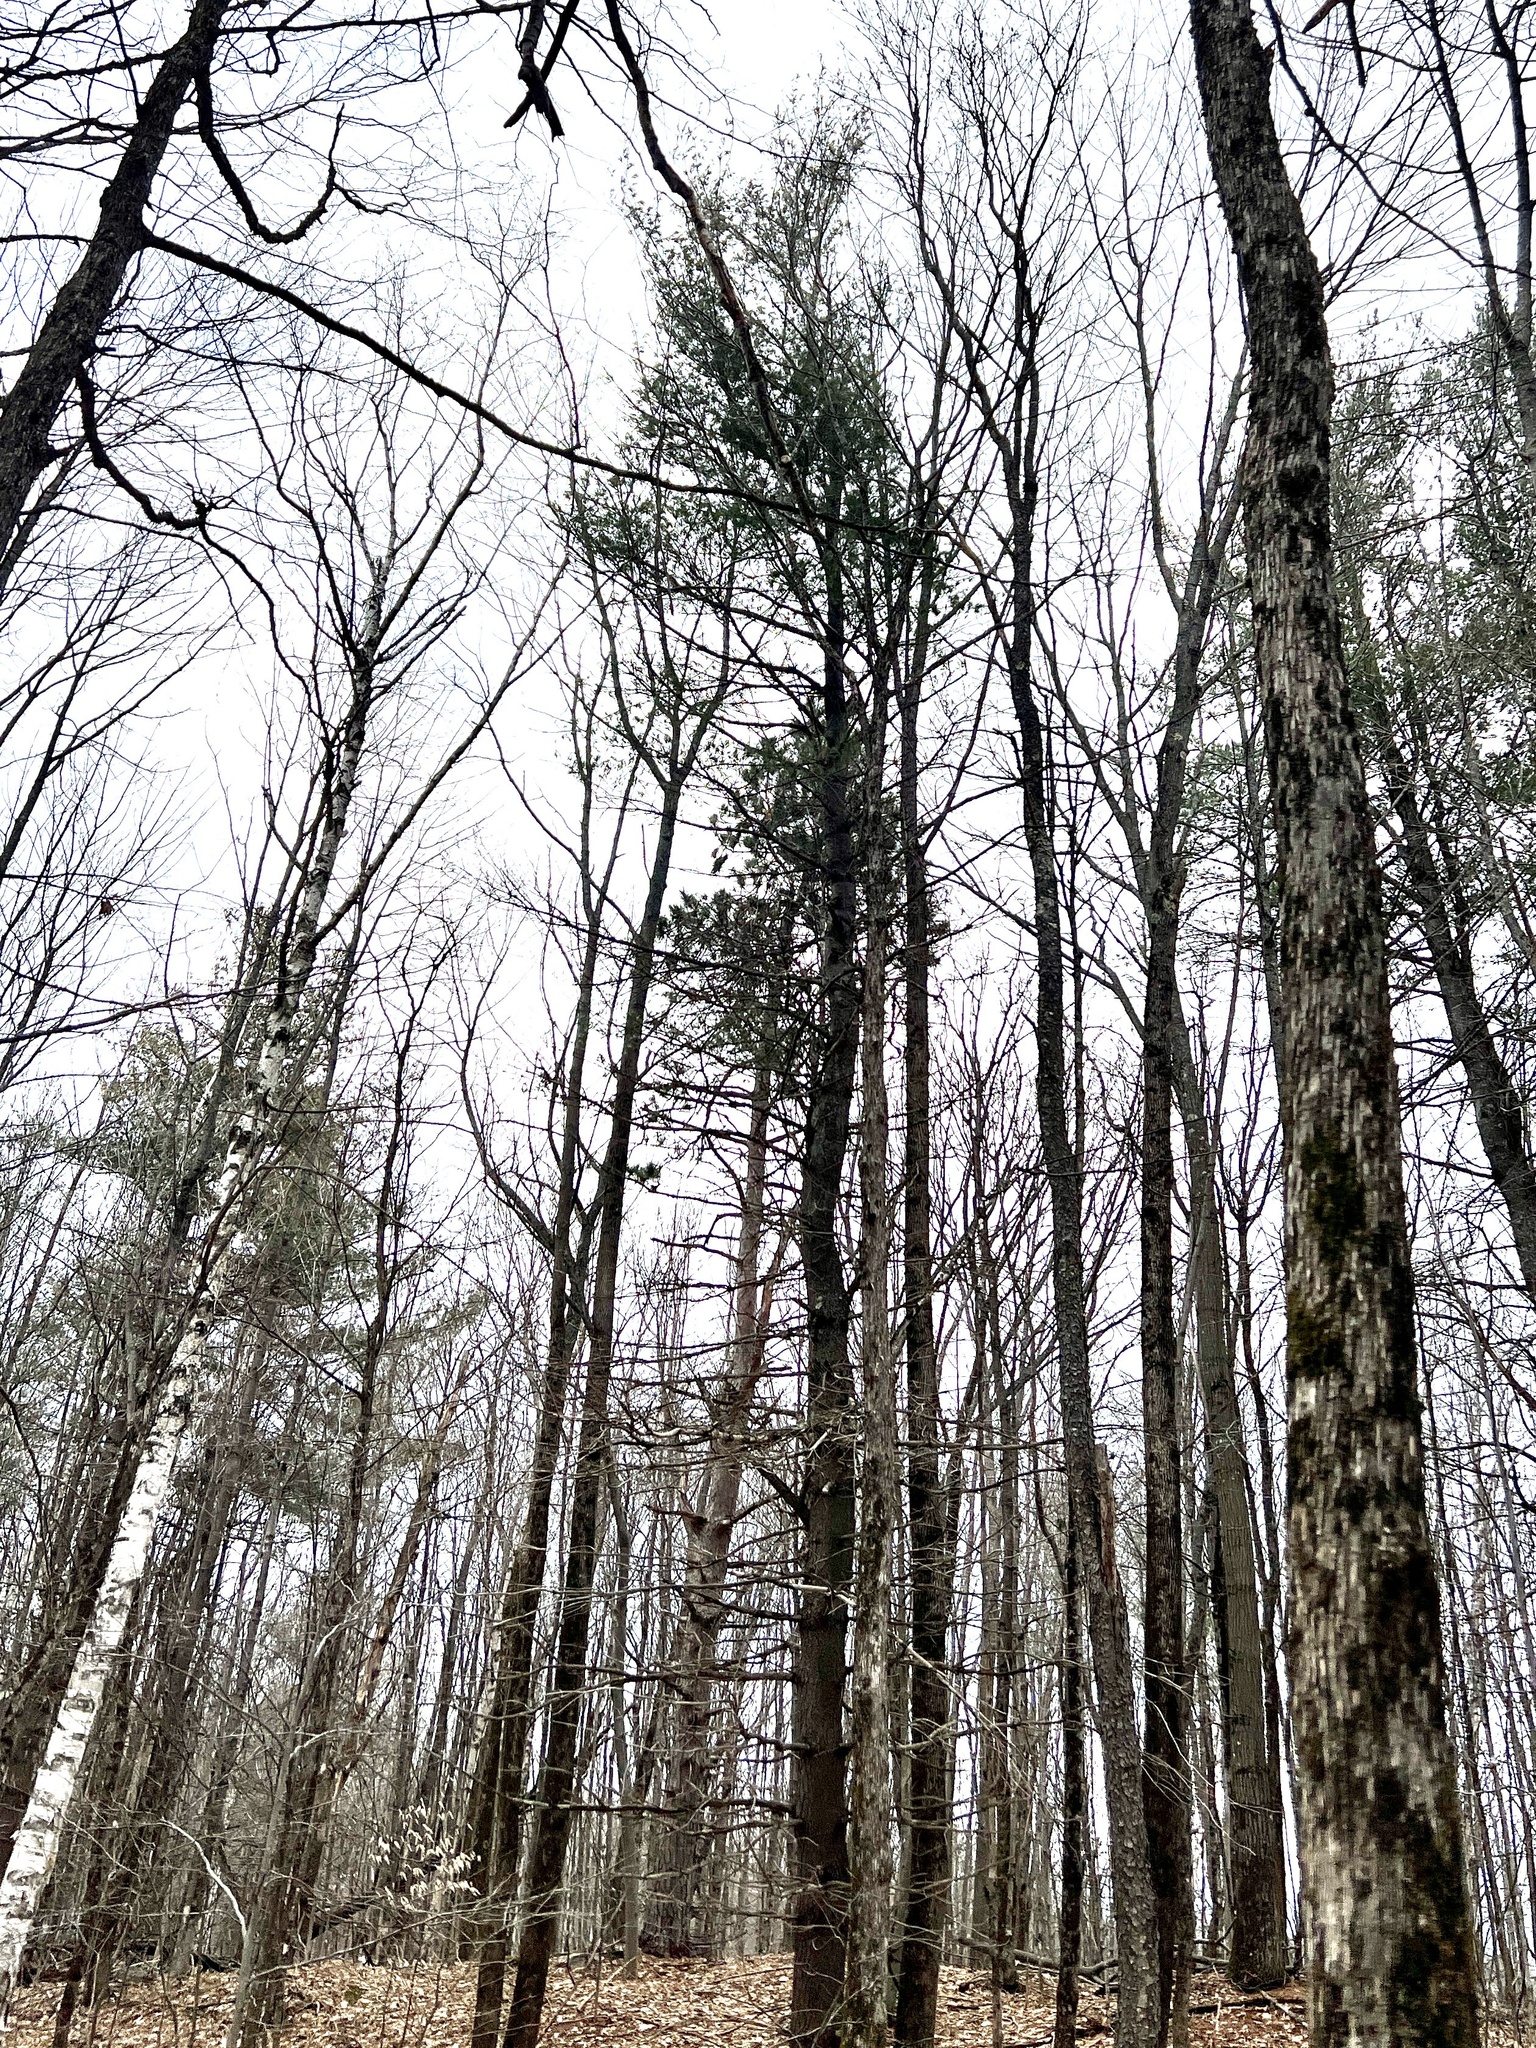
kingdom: Plantae
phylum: Tracheophyta
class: Pinopsida
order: Pinales
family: Pinaceae
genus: Pinus
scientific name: Pinus strobus
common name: Weymouth pine
